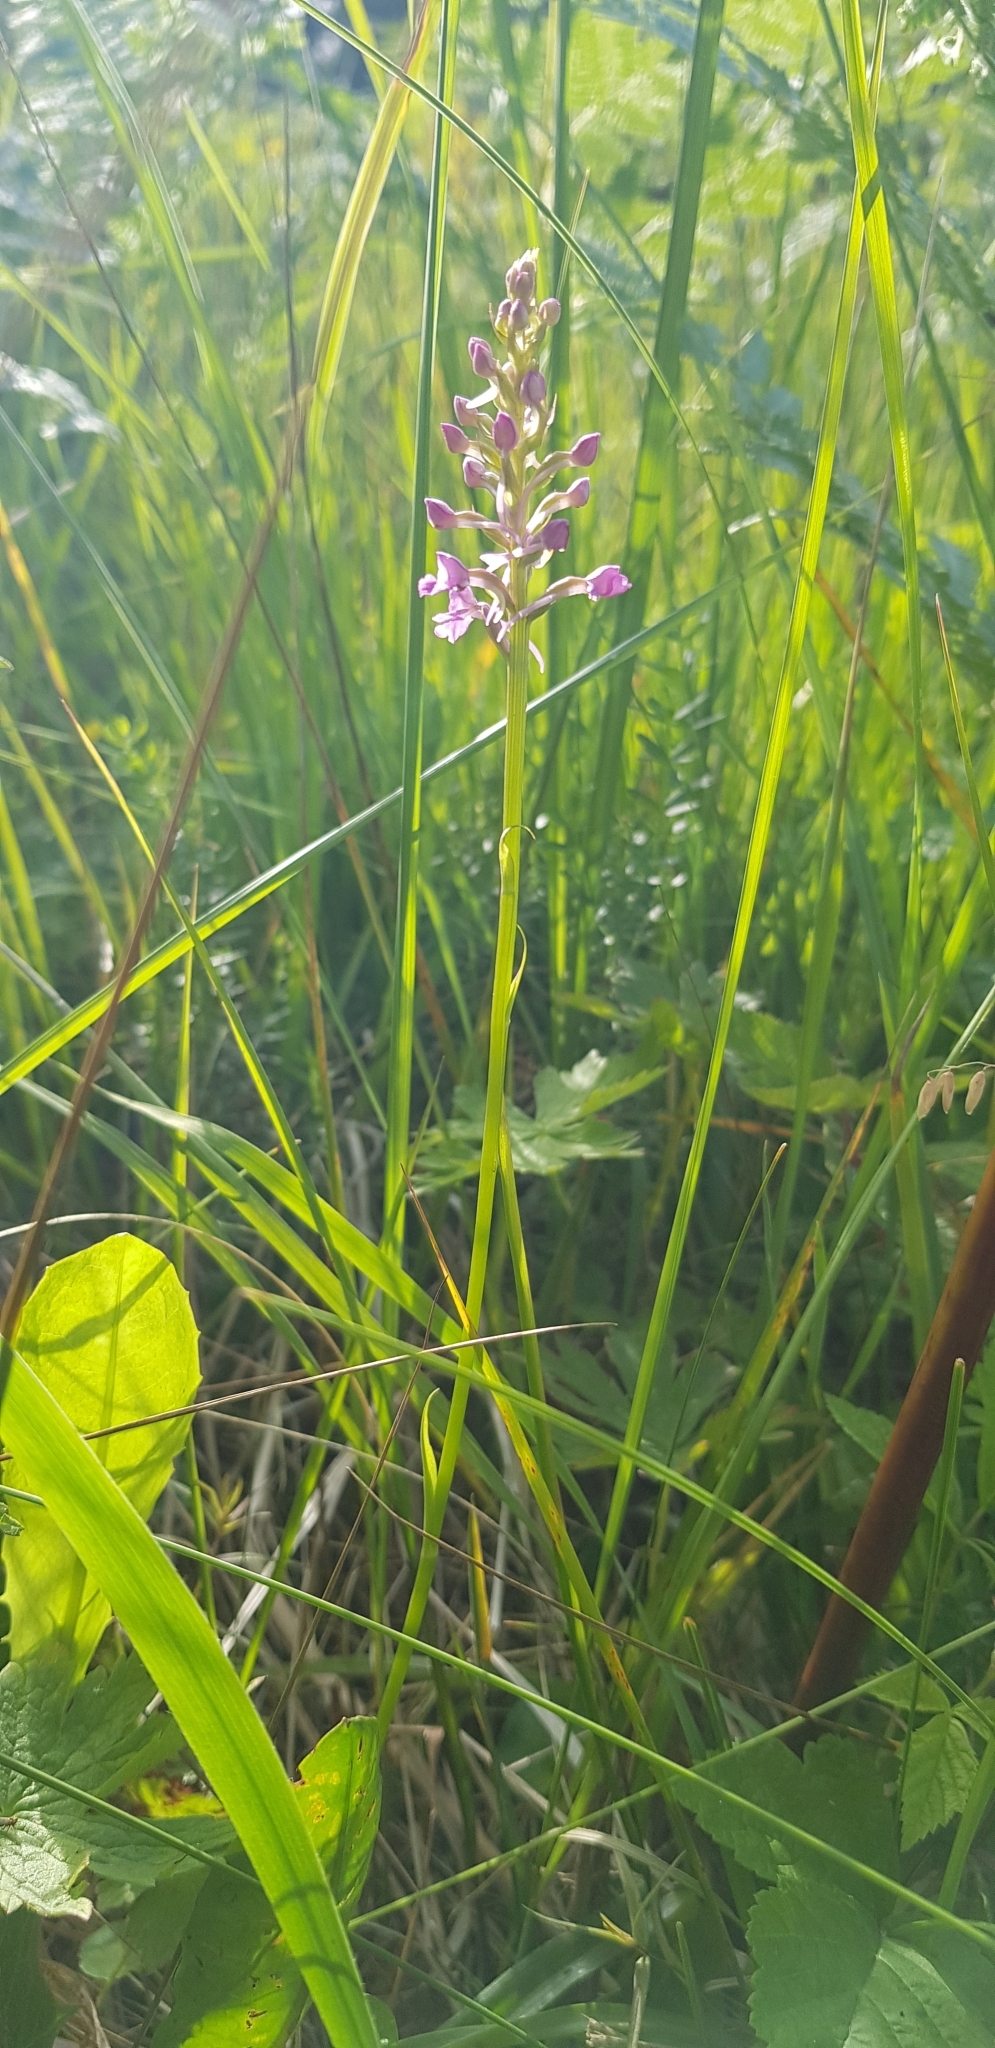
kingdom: Plantae
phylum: Tracheophyta
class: Liliopsida
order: Asparagales
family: Orchidaceae
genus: Gymnadenia
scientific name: Gymnadenia conopsea
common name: Fragrant orchid
